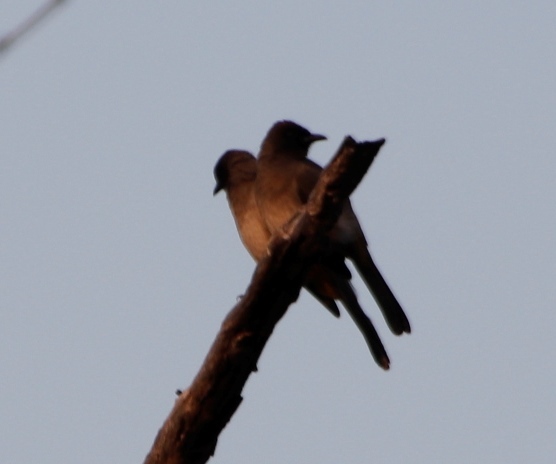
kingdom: Animalia
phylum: Chordata
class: Aves
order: Passeriformes
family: Pycnonotidae
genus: Pycnonotus
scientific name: Pycnonotus barbatus
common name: Common bulbul
